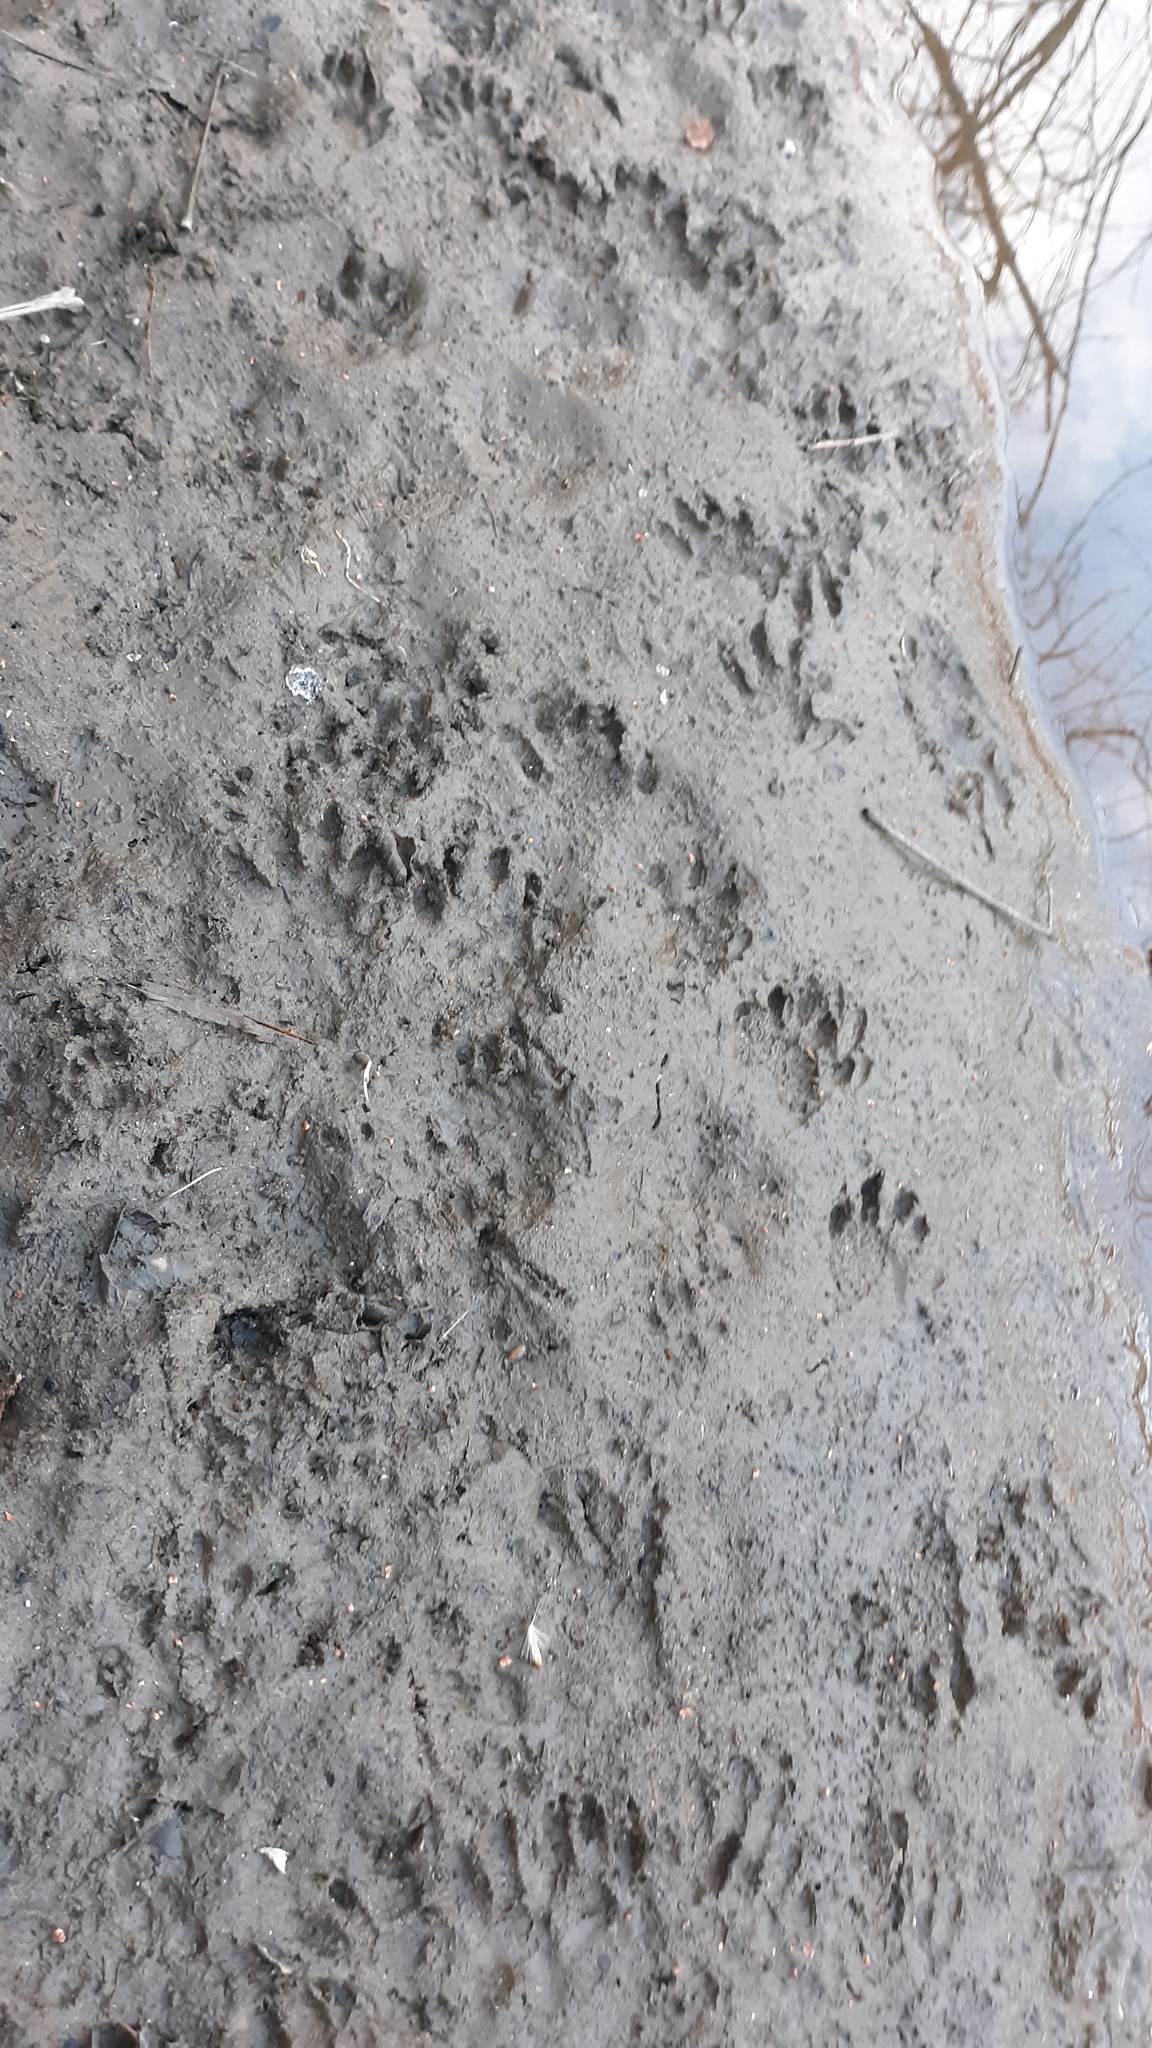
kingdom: Animalia
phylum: Chordata
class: Mammalia
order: Carnivora
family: Procyonidae
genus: Procyon
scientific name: Procyon lotor
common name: Raccoon
